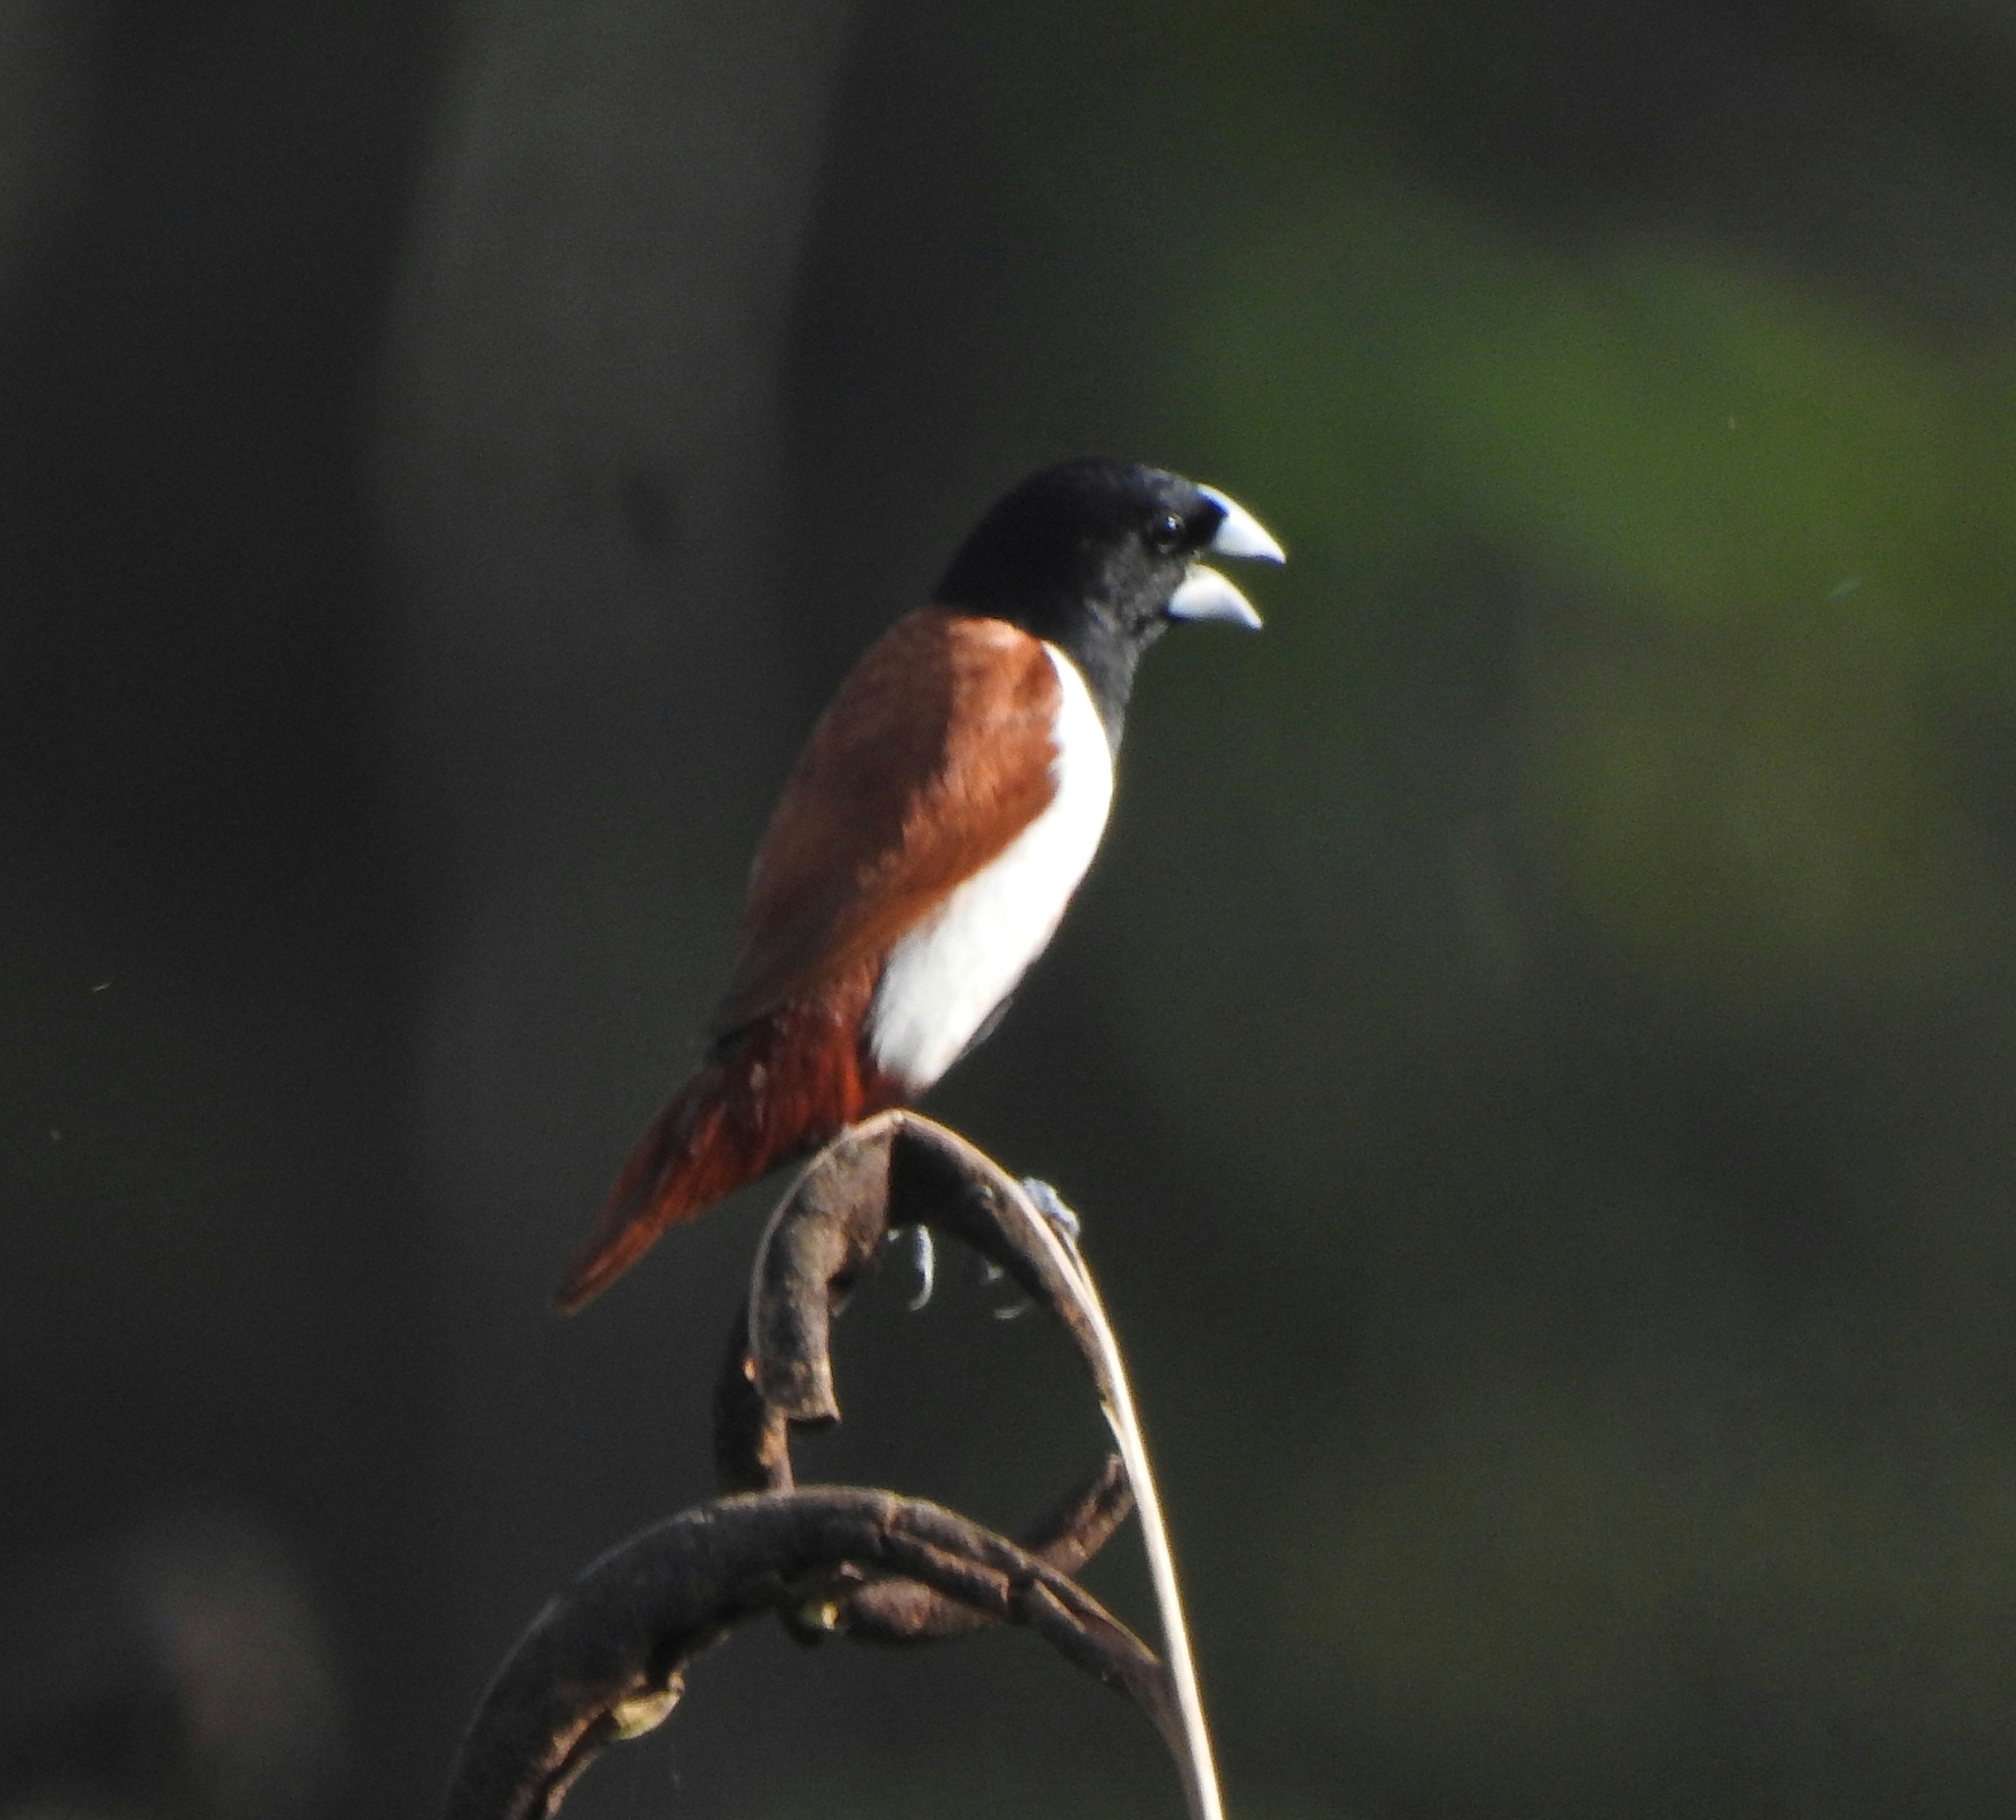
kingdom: Animalia
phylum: Chordata
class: Aves
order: Passeriformes
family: Estrildidae
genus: Lonchura
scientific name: Lonchura malacca
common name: Tricolored munia
